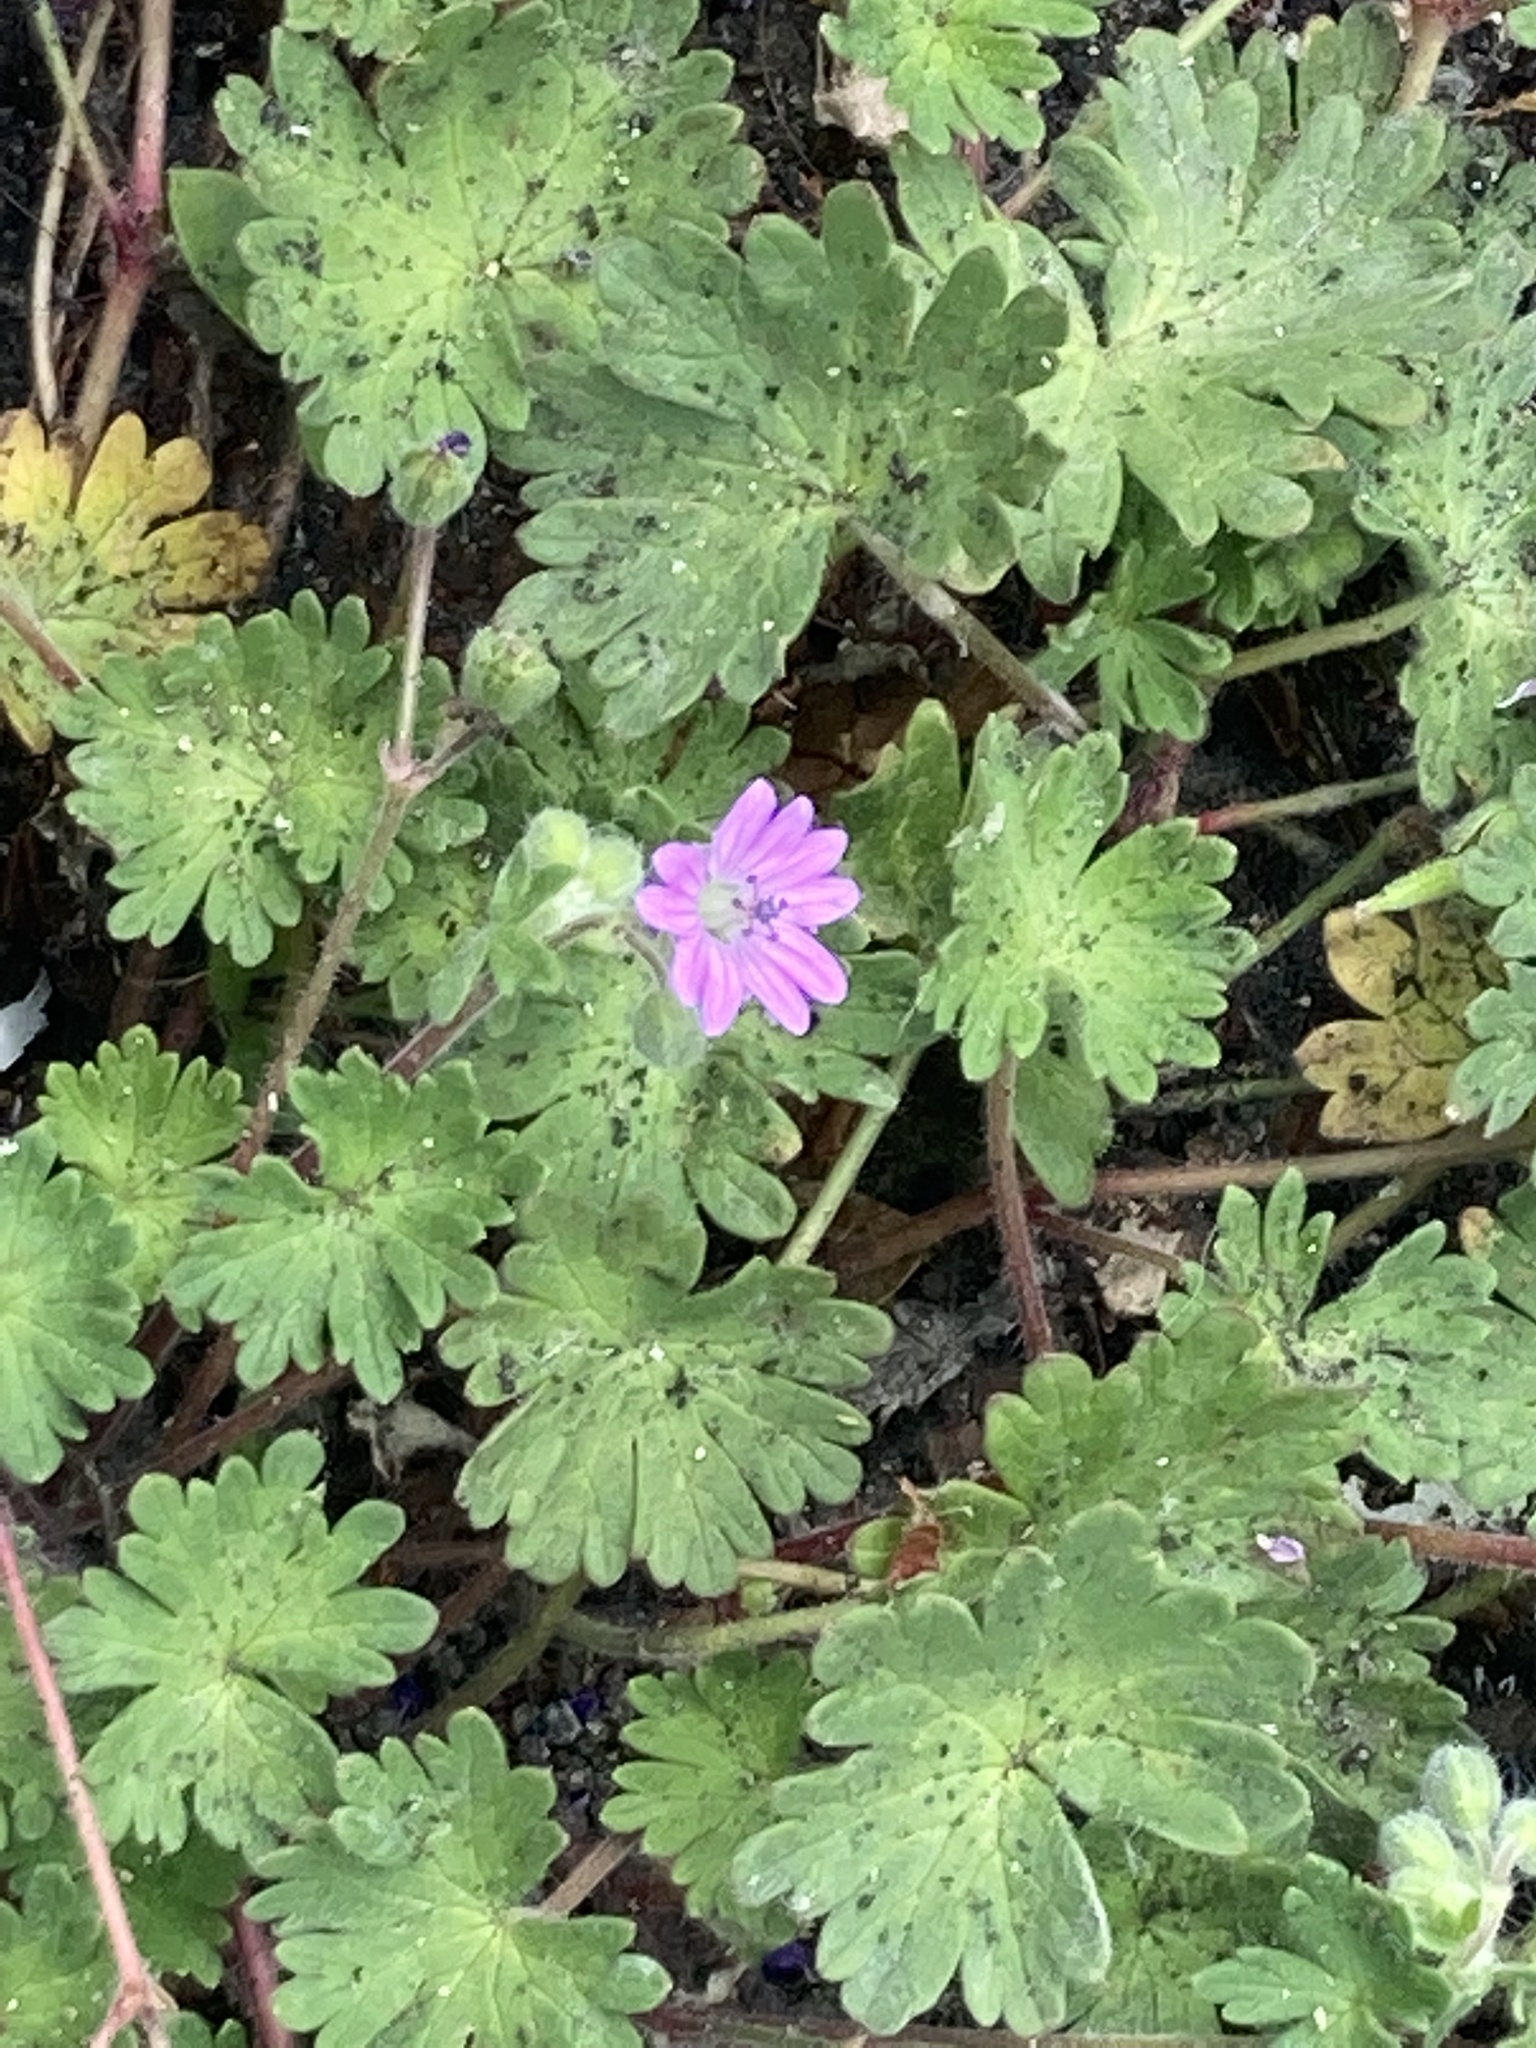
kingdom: Plantae
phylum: Tracheophyta
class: Magnoliopsida
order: Geraniales
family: Geraniaceae
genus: Geranium
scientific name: Geranium molle
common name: Dove's-foot crane's-bill
